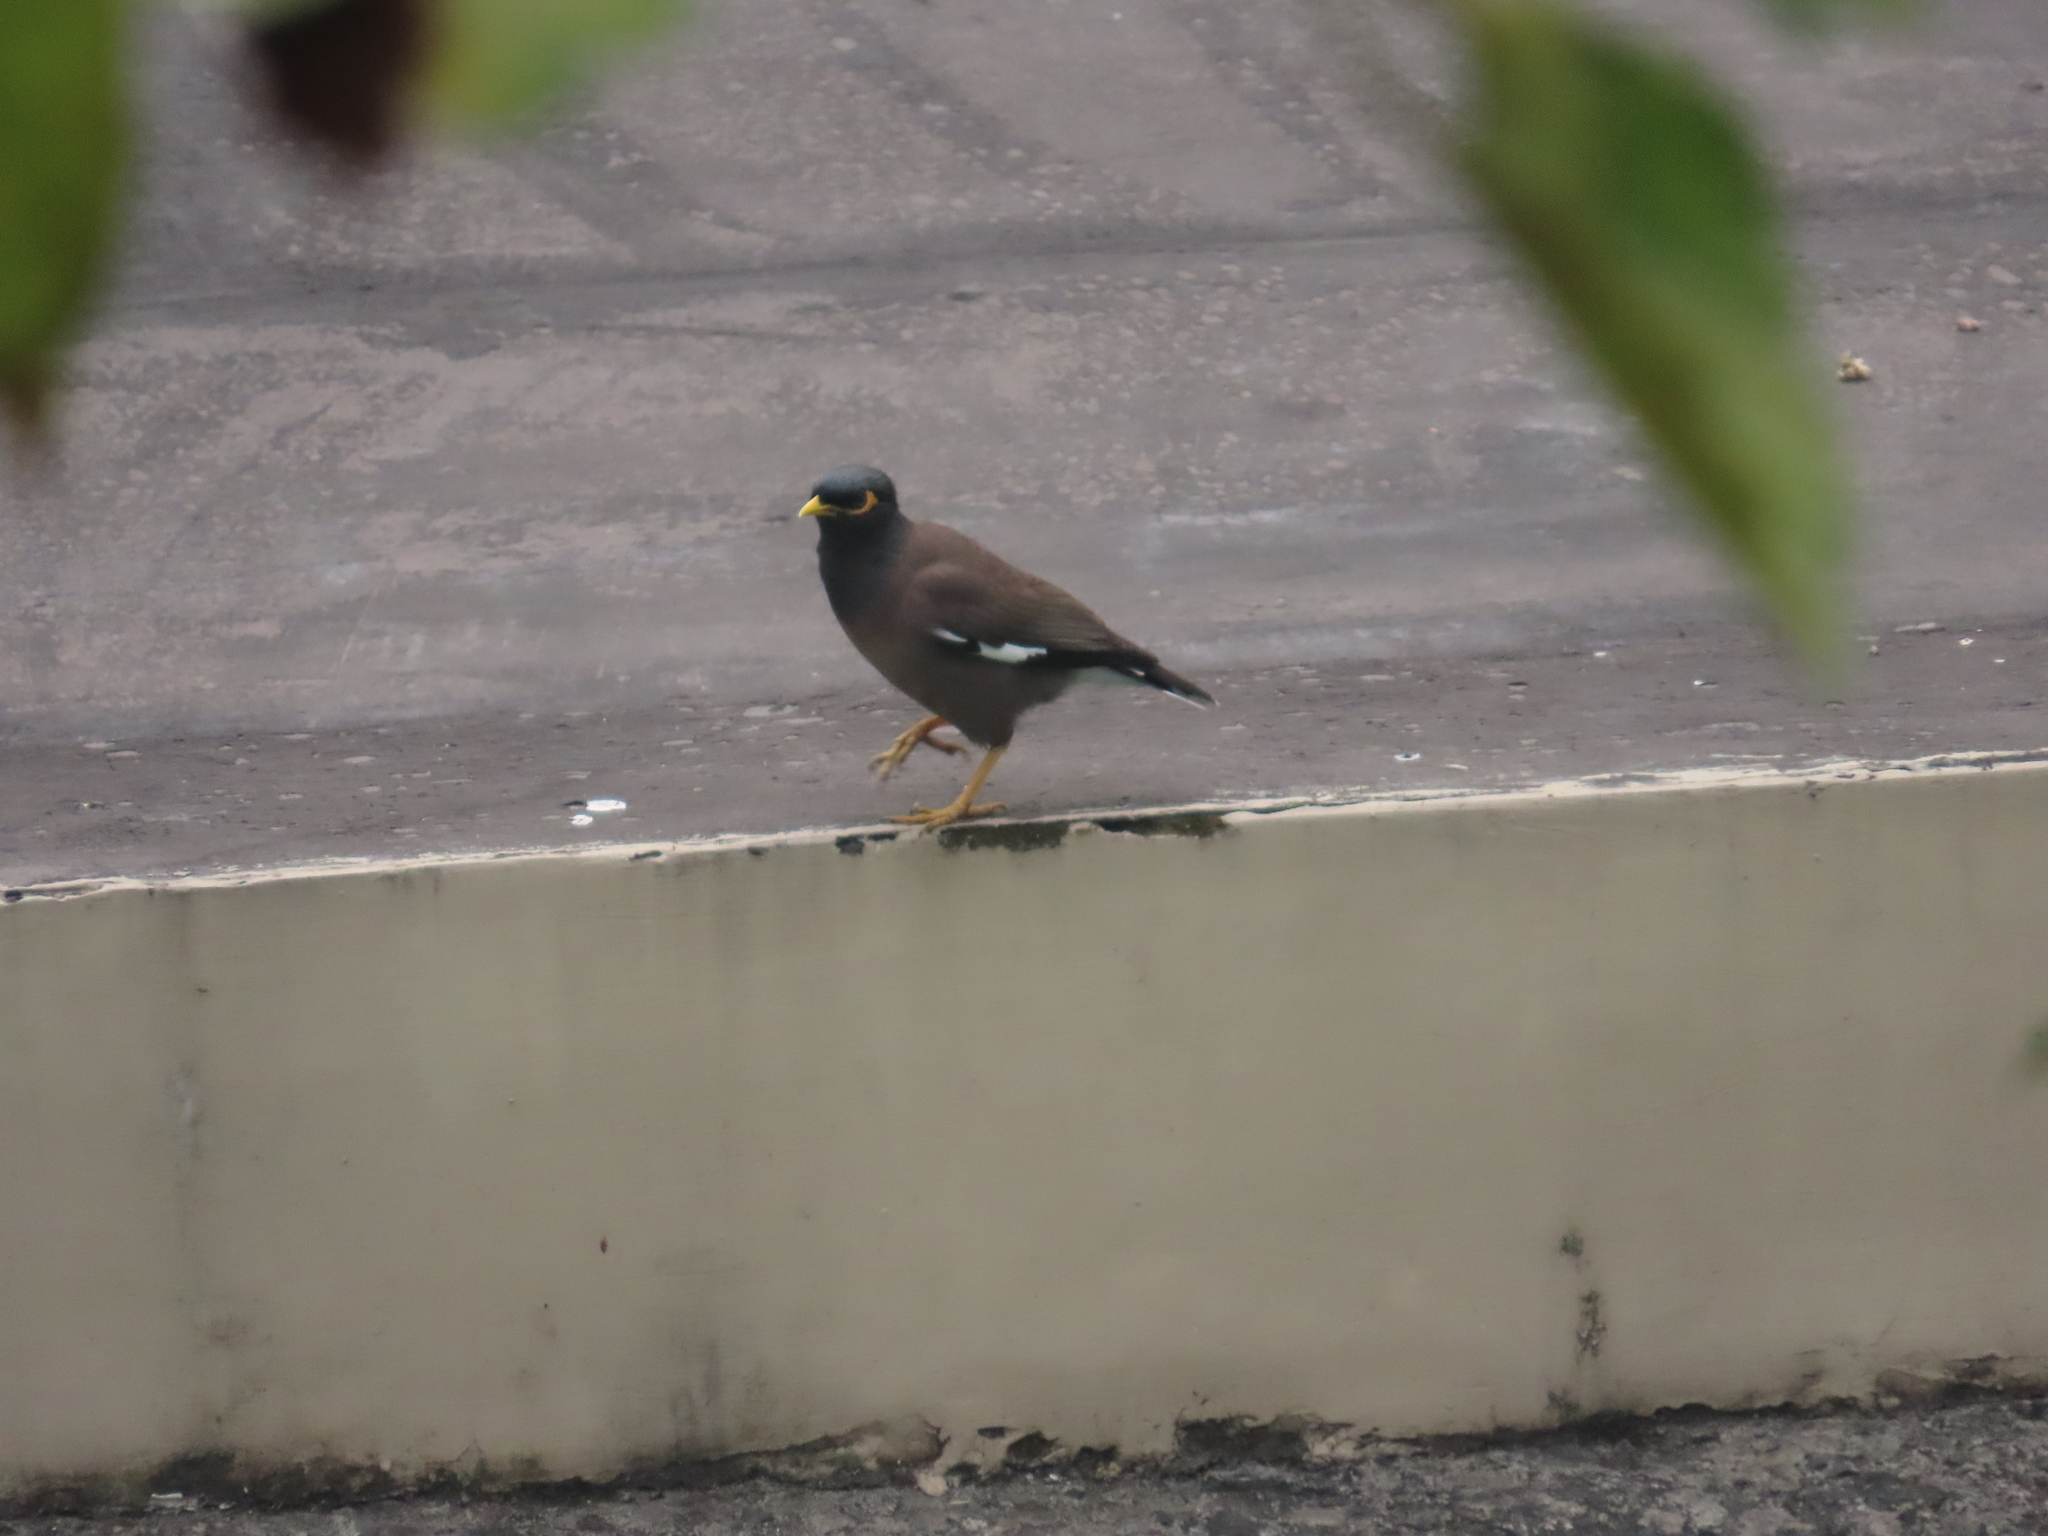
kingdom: Animalia
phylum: Chordata
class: Aves
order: Passeriformes
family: Sturnidae
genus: Acridotheres
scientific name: Acridotheres tristis
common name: Common myna
